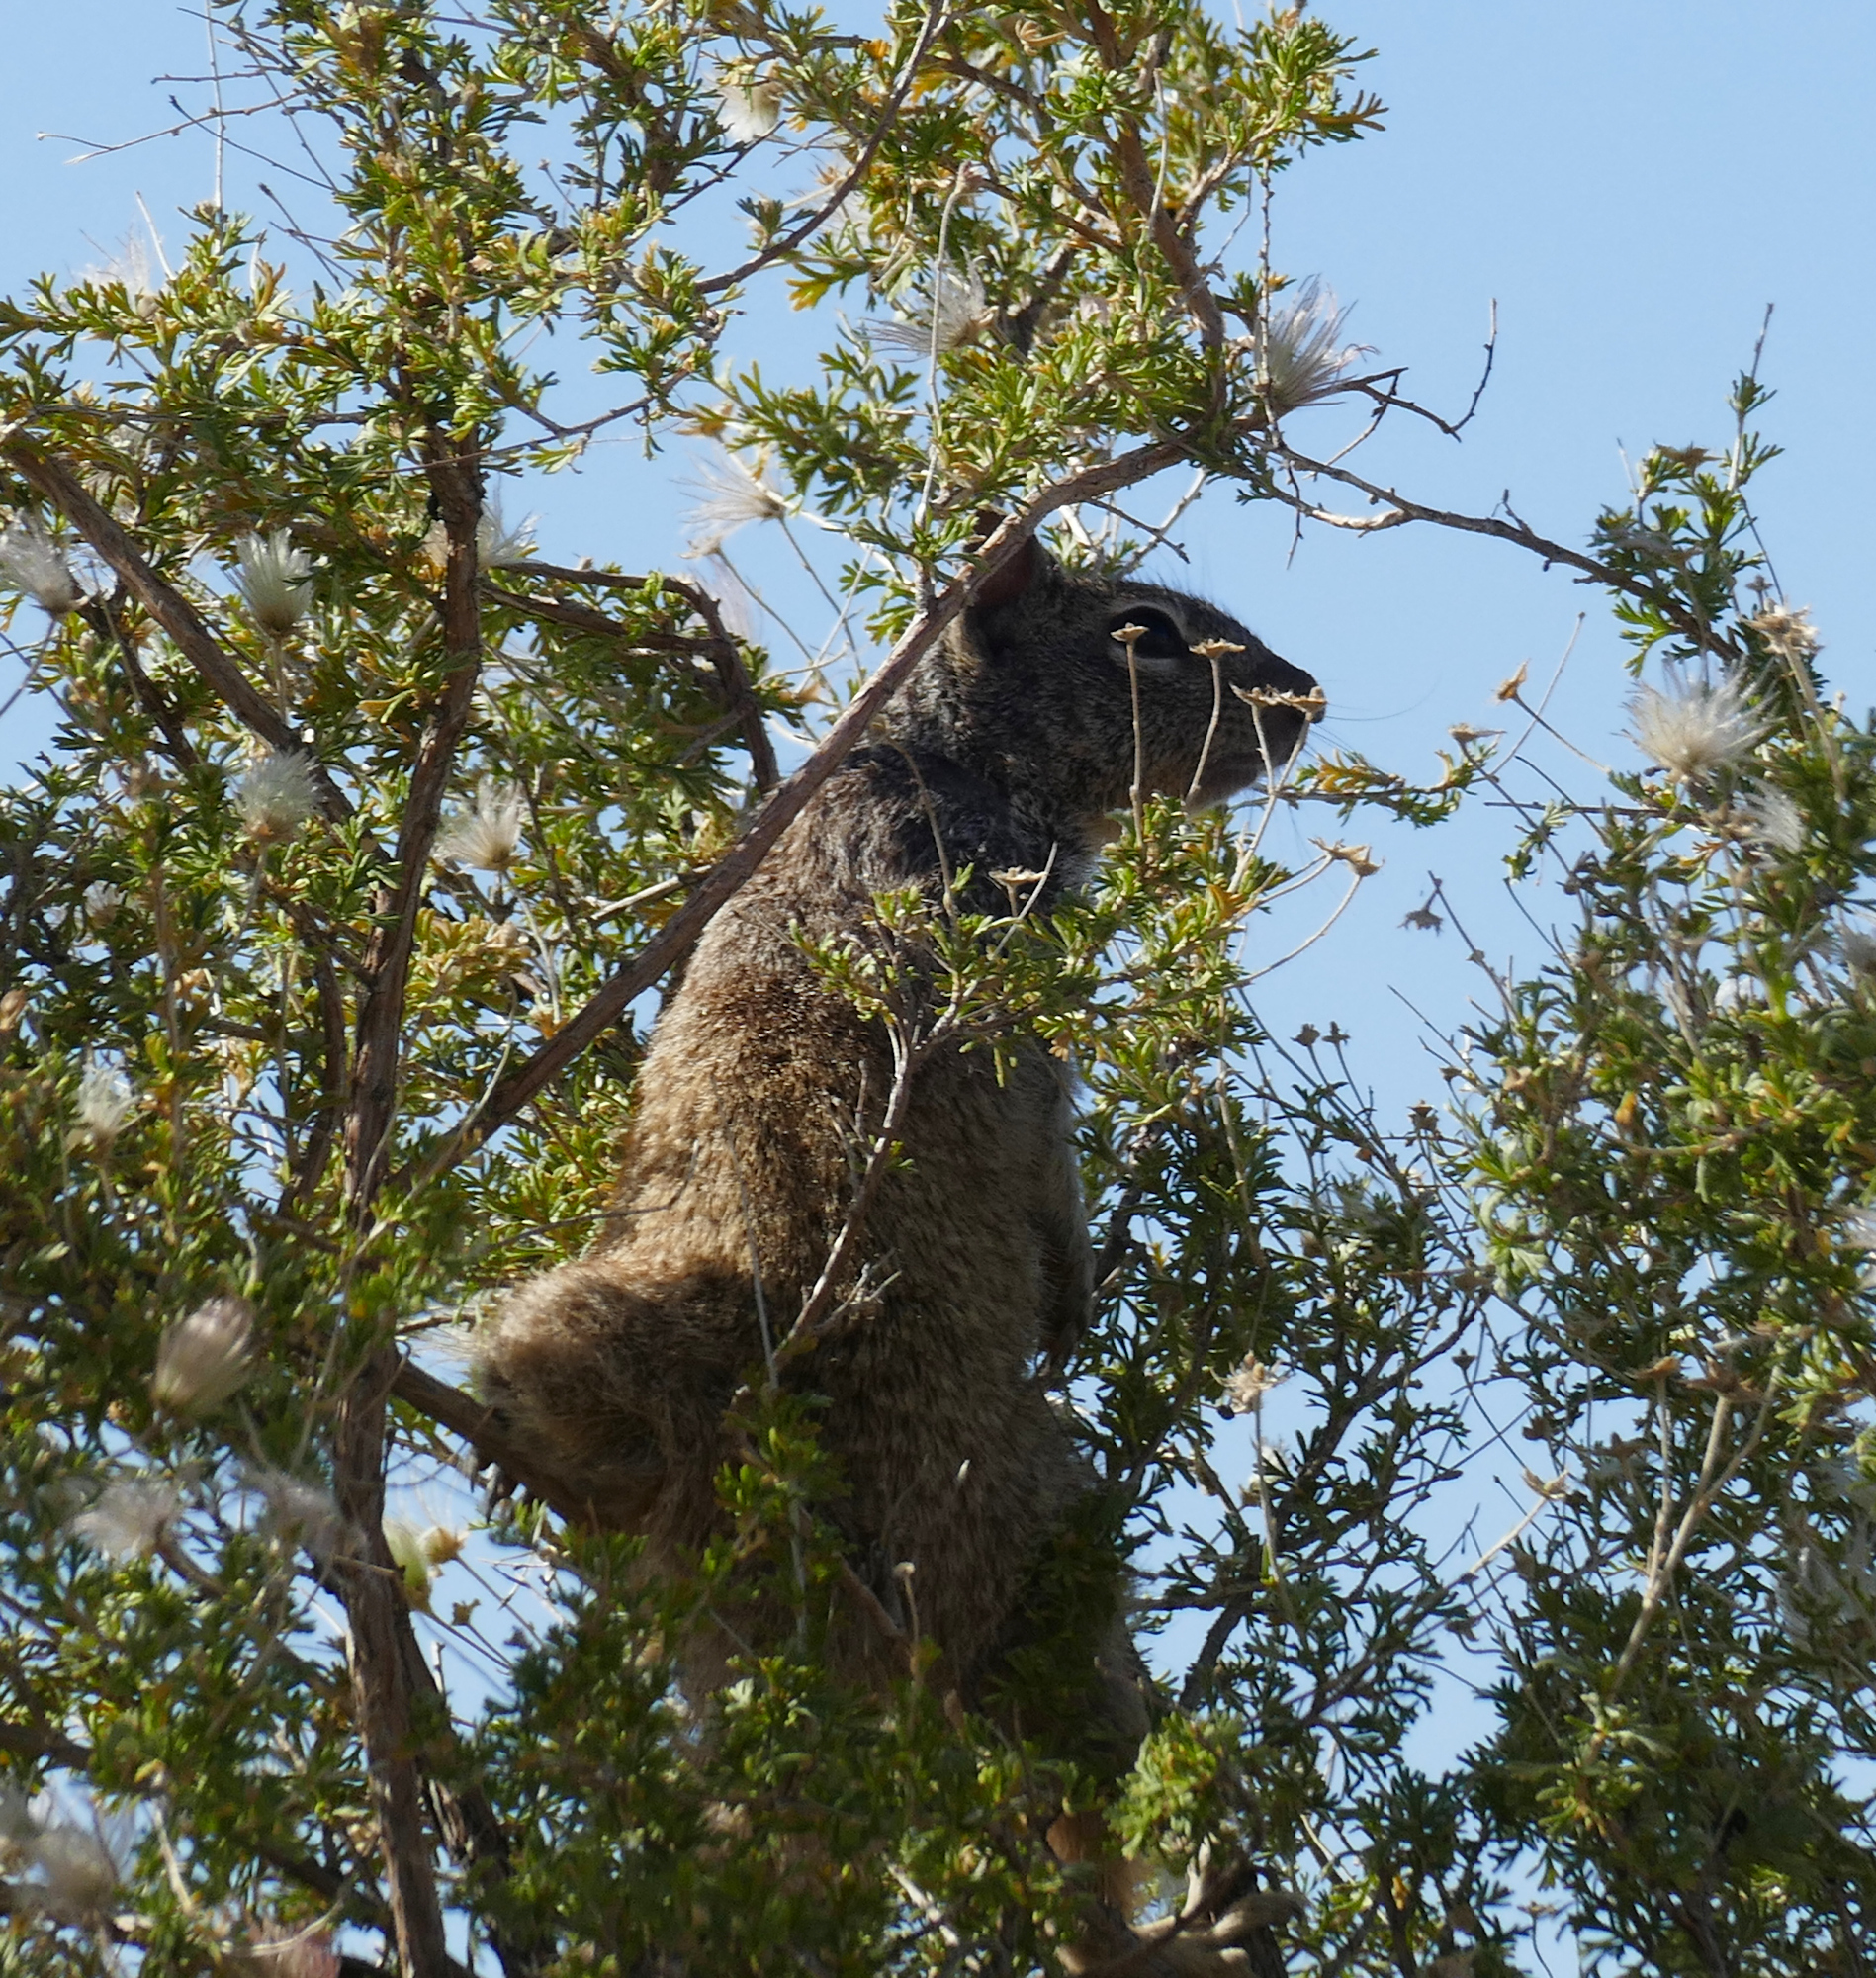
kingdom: Animalia
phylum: Chordata
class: Mammalia
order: Rodentia
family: Sciuridae
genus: Otospermophilus
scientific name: Otospermophilus variegatus
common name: Rock squirrel
